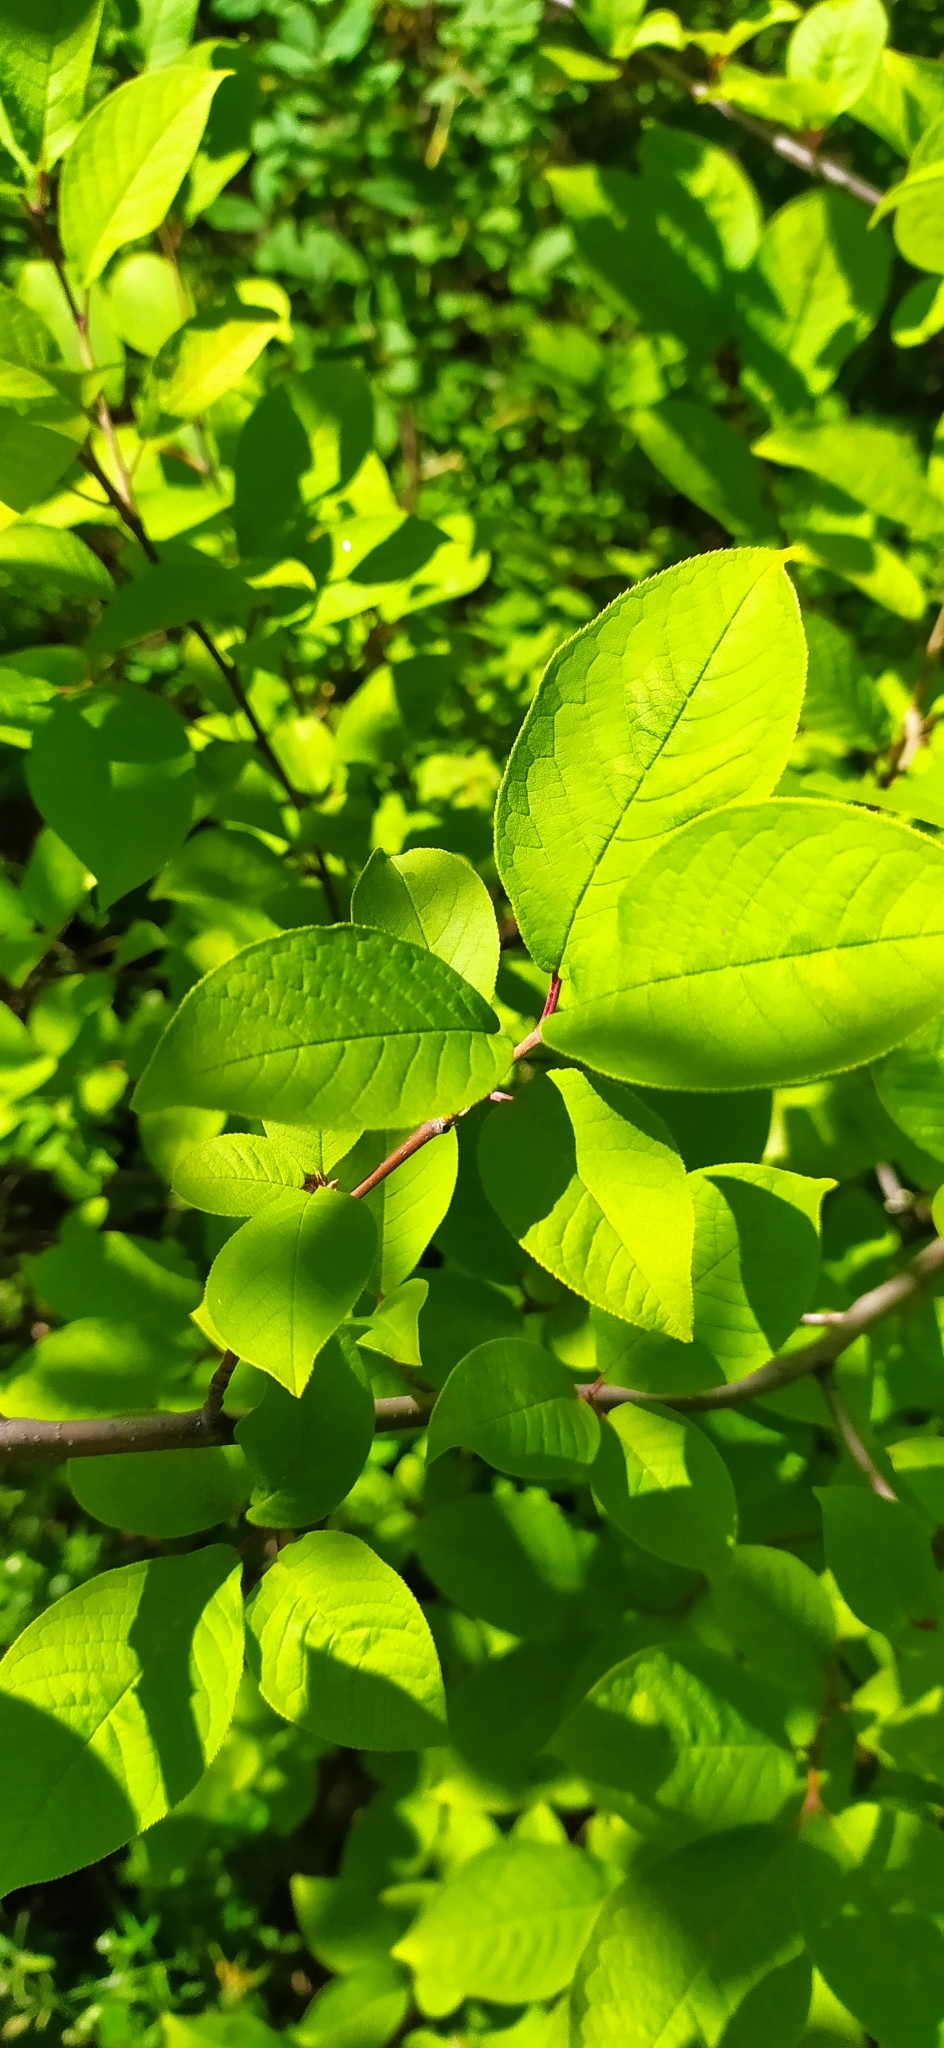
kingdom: Plantae
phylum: Tracheophyta
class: Magnoliopsida
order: Rosales
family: Rosaceae
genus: Prunus
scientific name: Prunus padus
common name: Bird cherry
